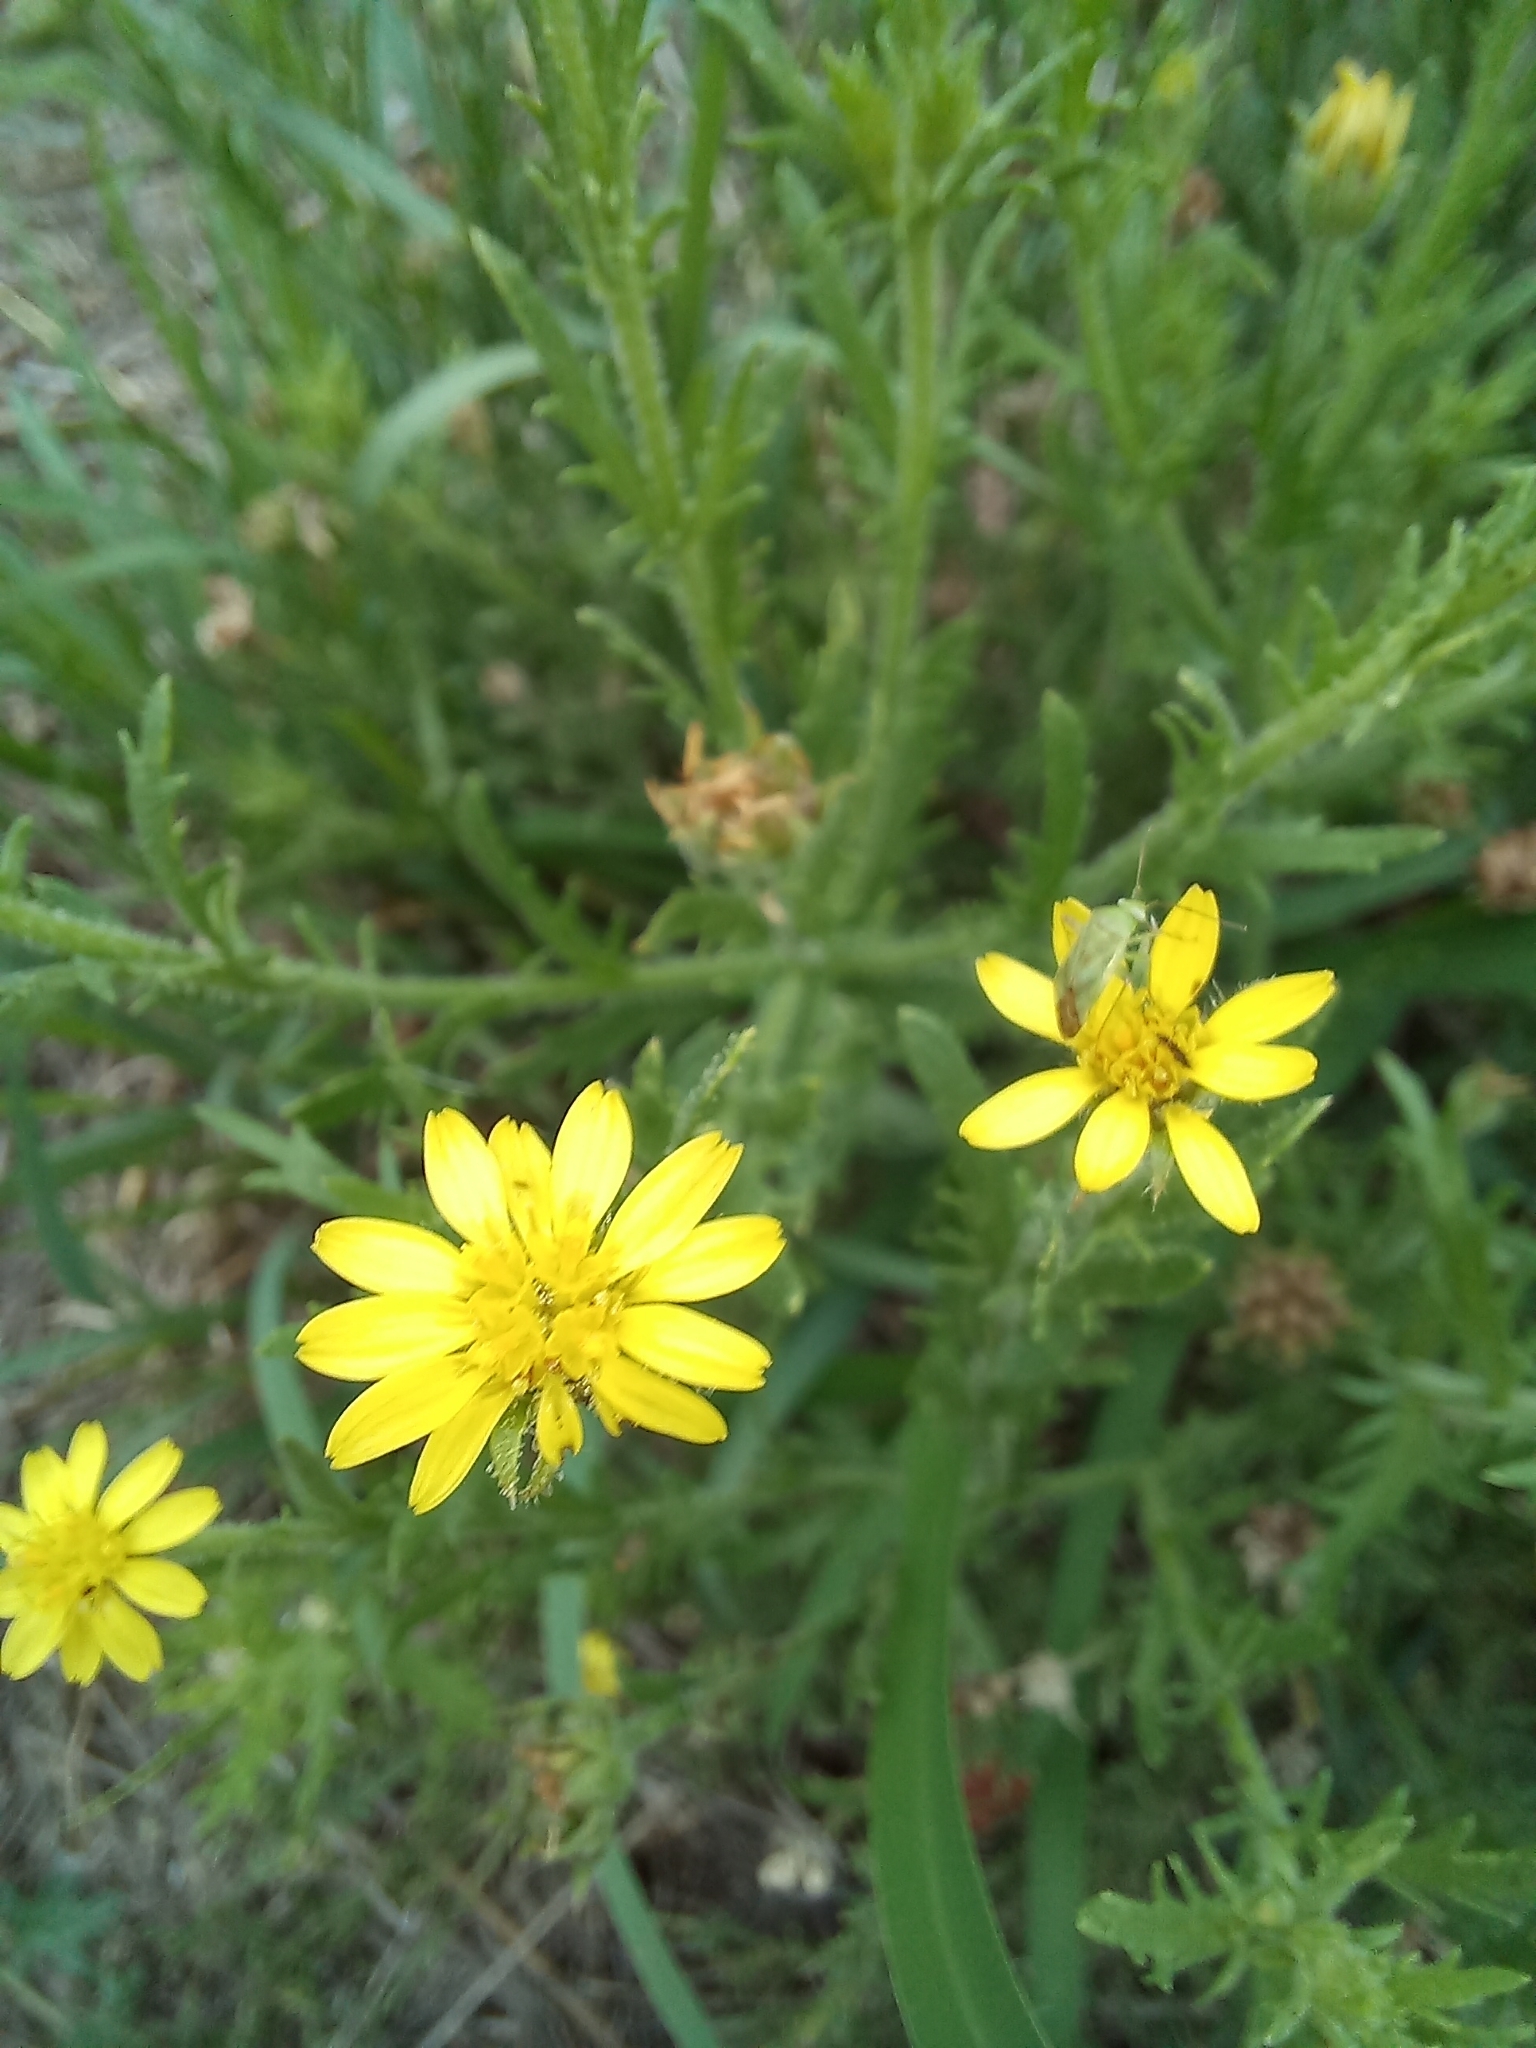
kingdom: Plantae
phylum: Tracheophyta
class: Magnoliopsida
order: Asterales
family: Asteraceae
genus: Osteospermum
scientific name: Osteospermum muricatum
